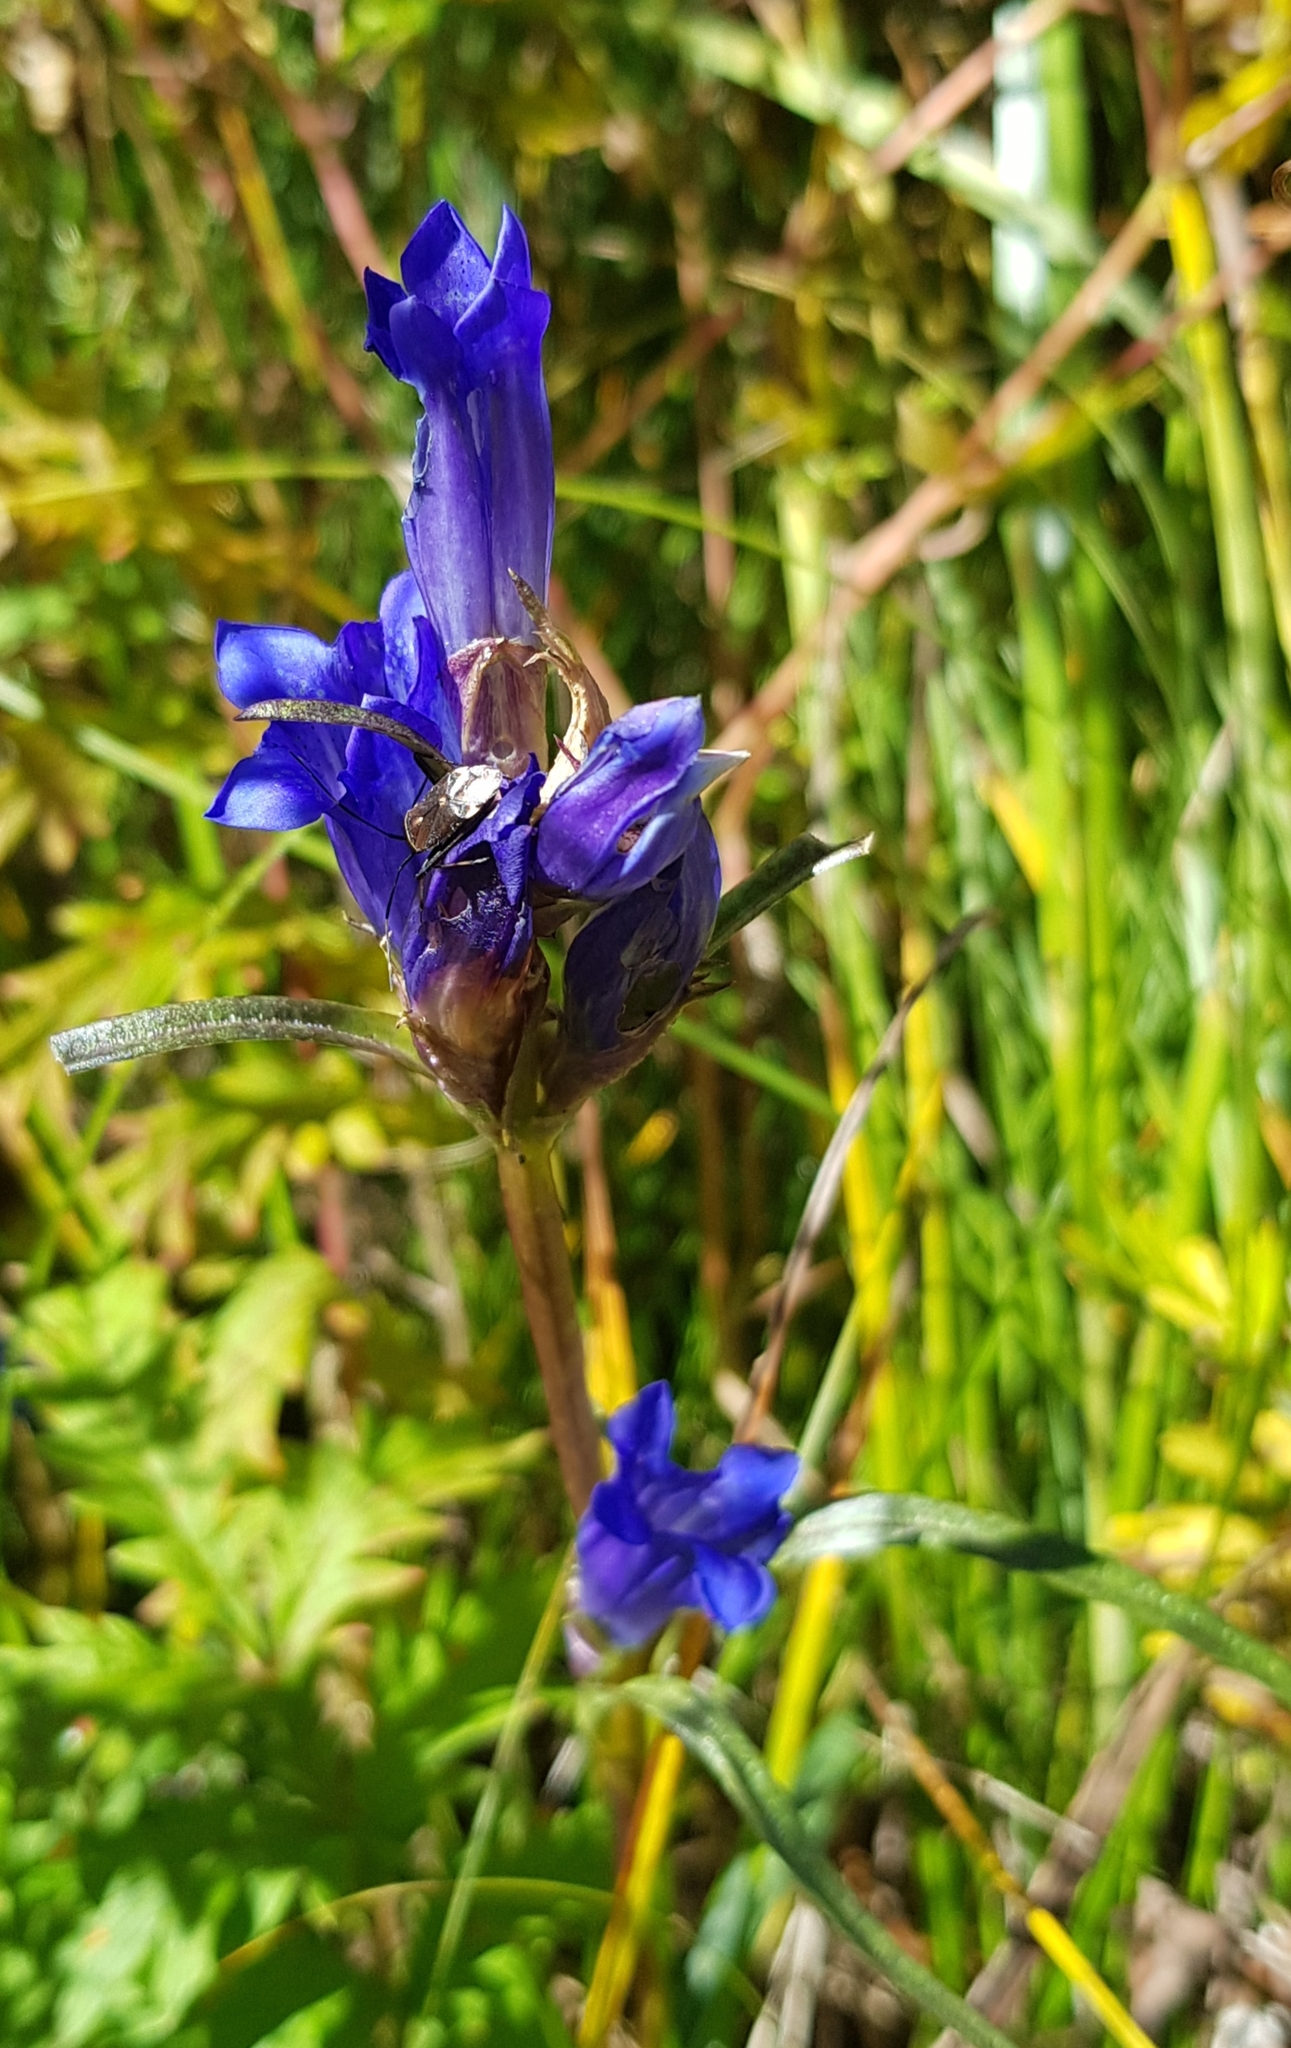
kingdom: Plantae
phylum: Tracheophyta
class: Magnoliopsida
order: Gentianales
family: Gentianaceae
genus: Gentiana
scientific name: Gentiana decumbens
